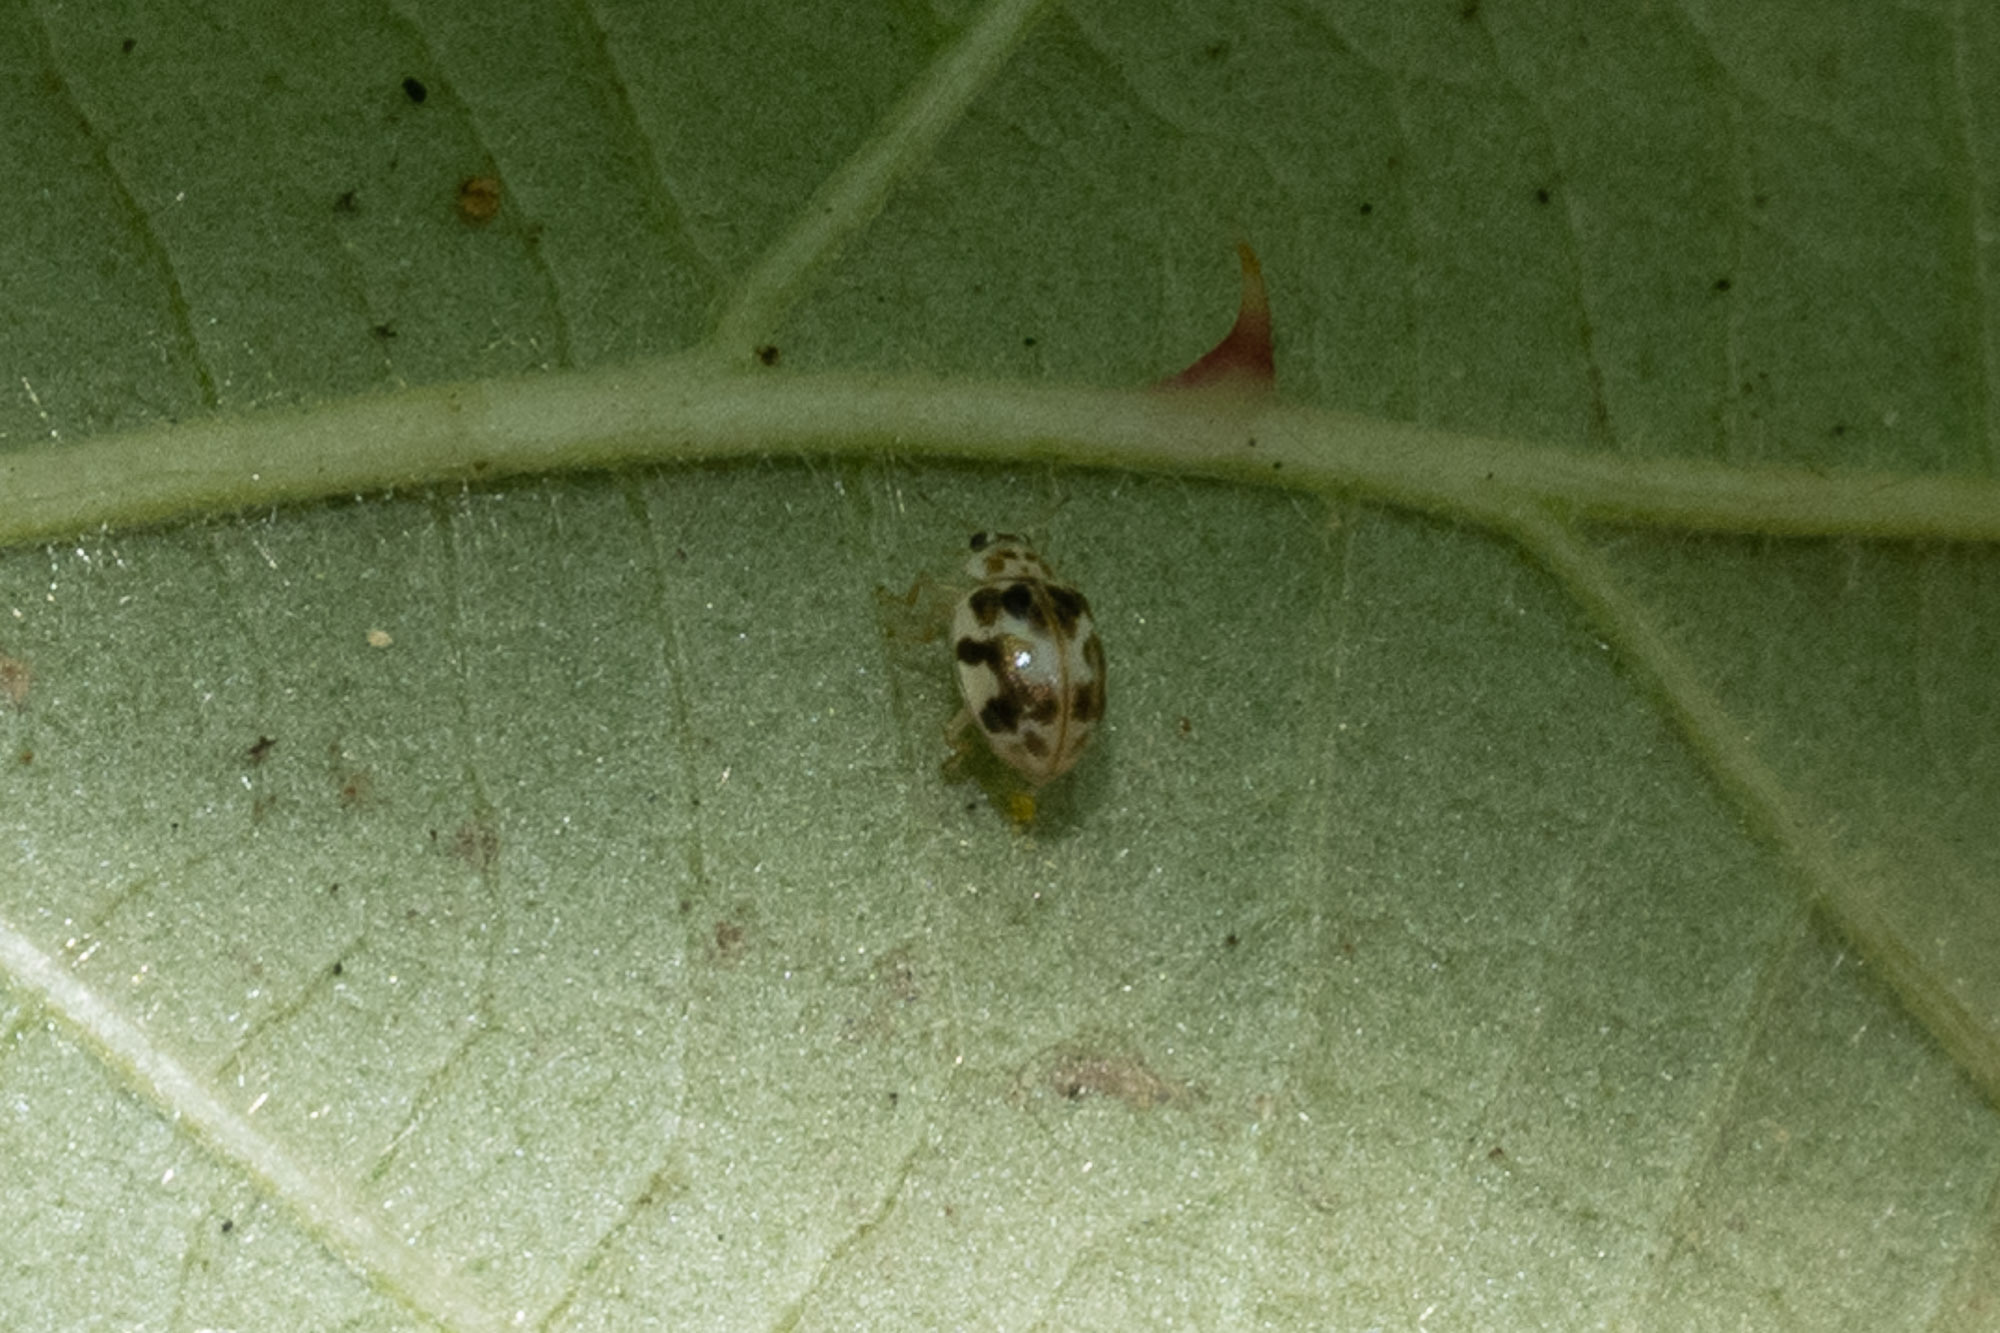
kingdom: Animalia
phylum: Arthropoda
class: Insecta
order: Coleoptera
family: Coccinellidae
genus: Psyllobora
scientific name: Psyllobora vigintimaculata
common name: Ladybird beetle
